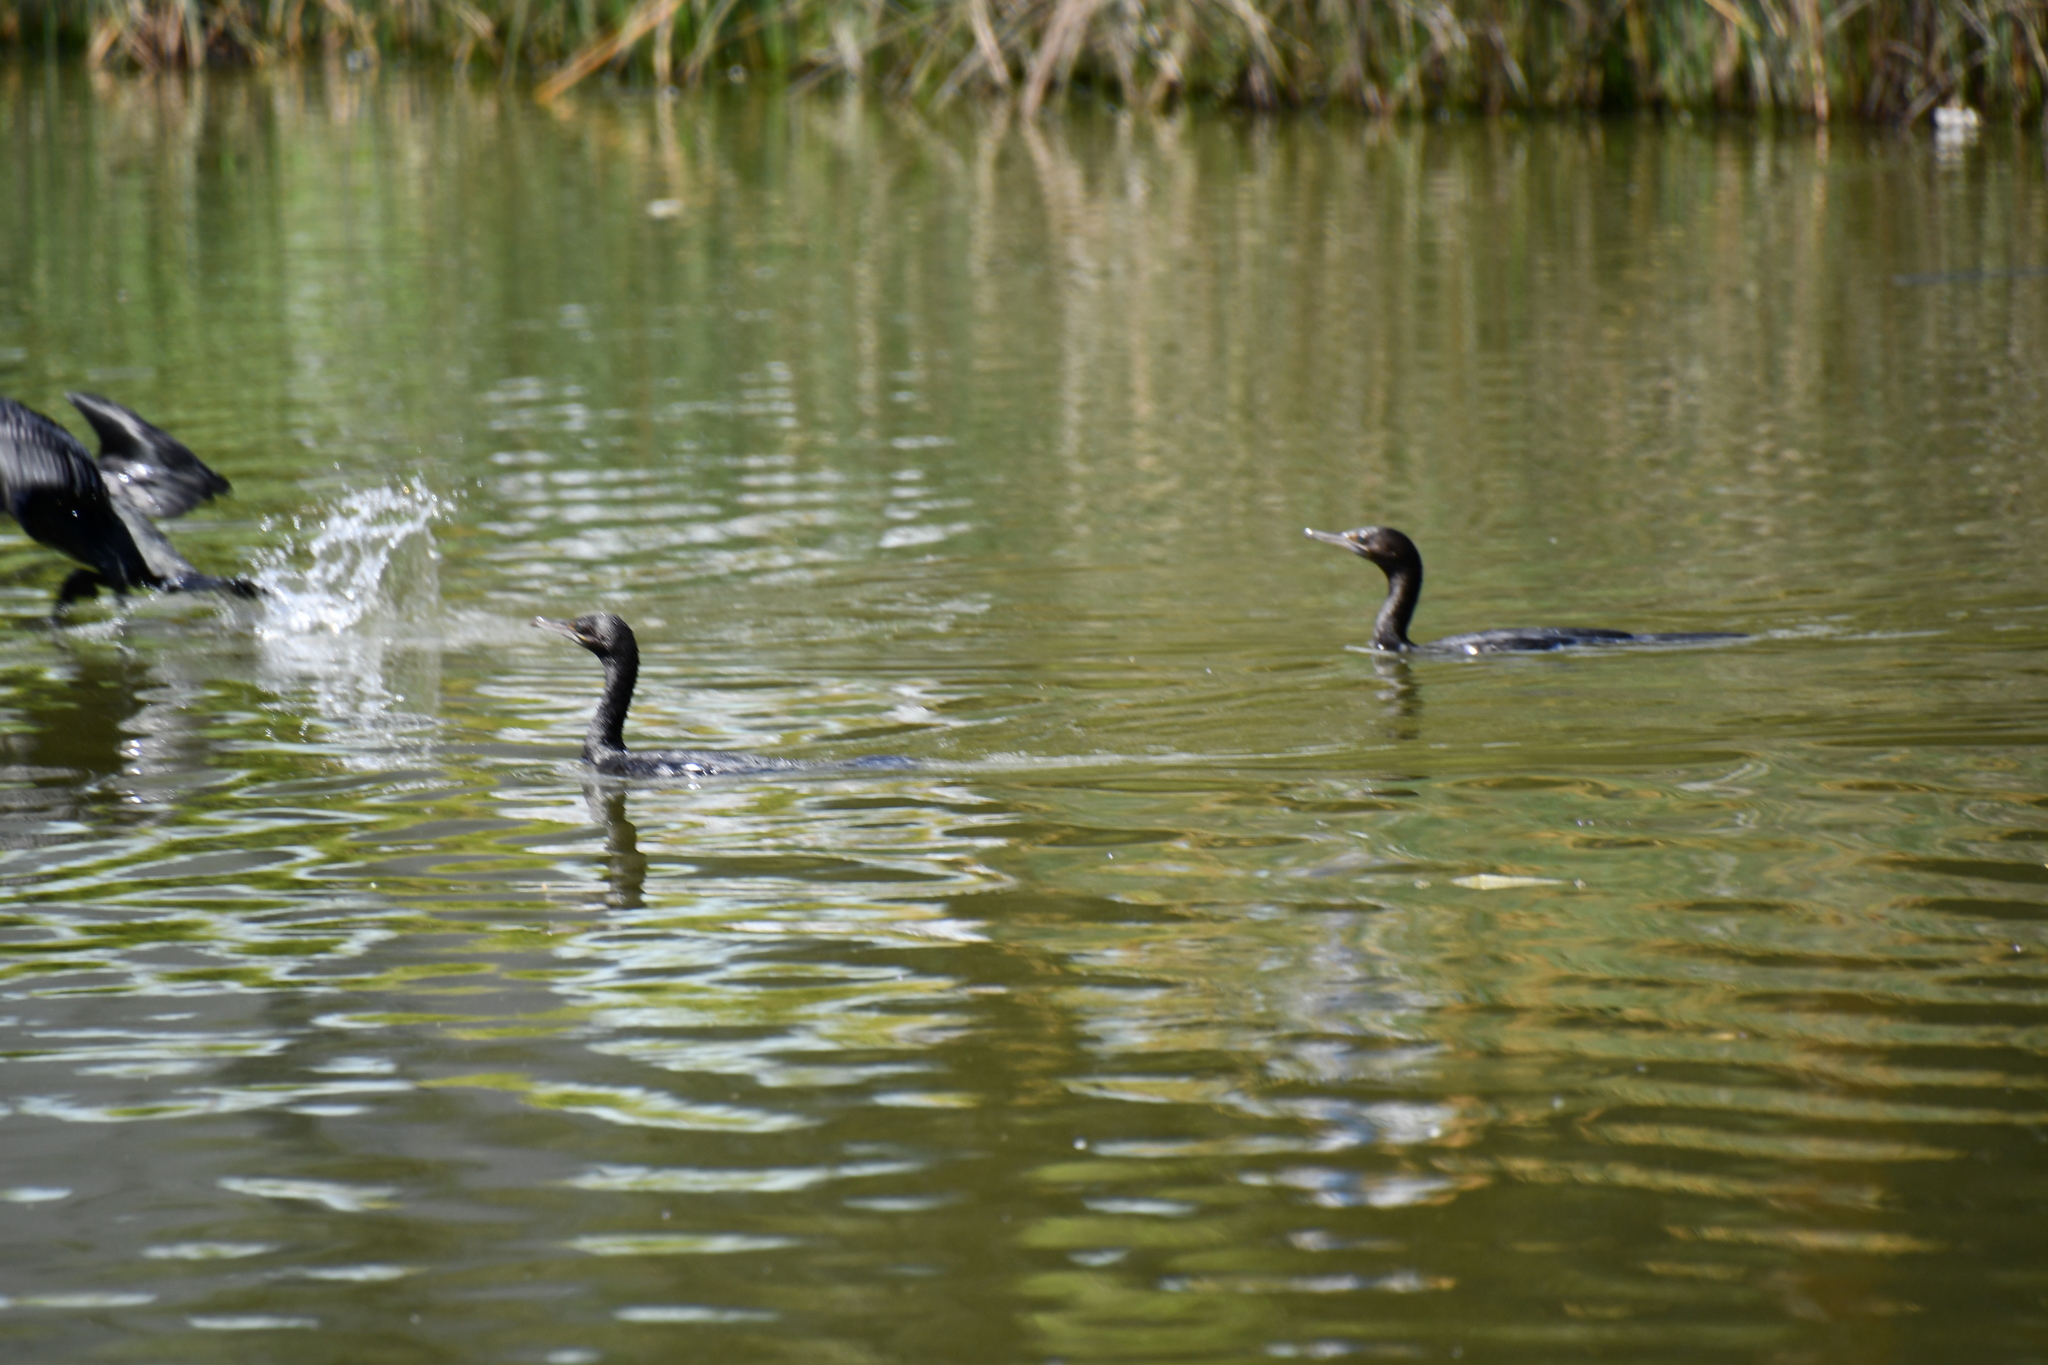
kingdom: Animalia
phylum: Chordata
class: Aves
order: Suliformes
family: Phalacrocoracidae
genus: Phalacrocorax
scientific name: Phalacrocorax sulcirostris
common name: Little black cormorant
